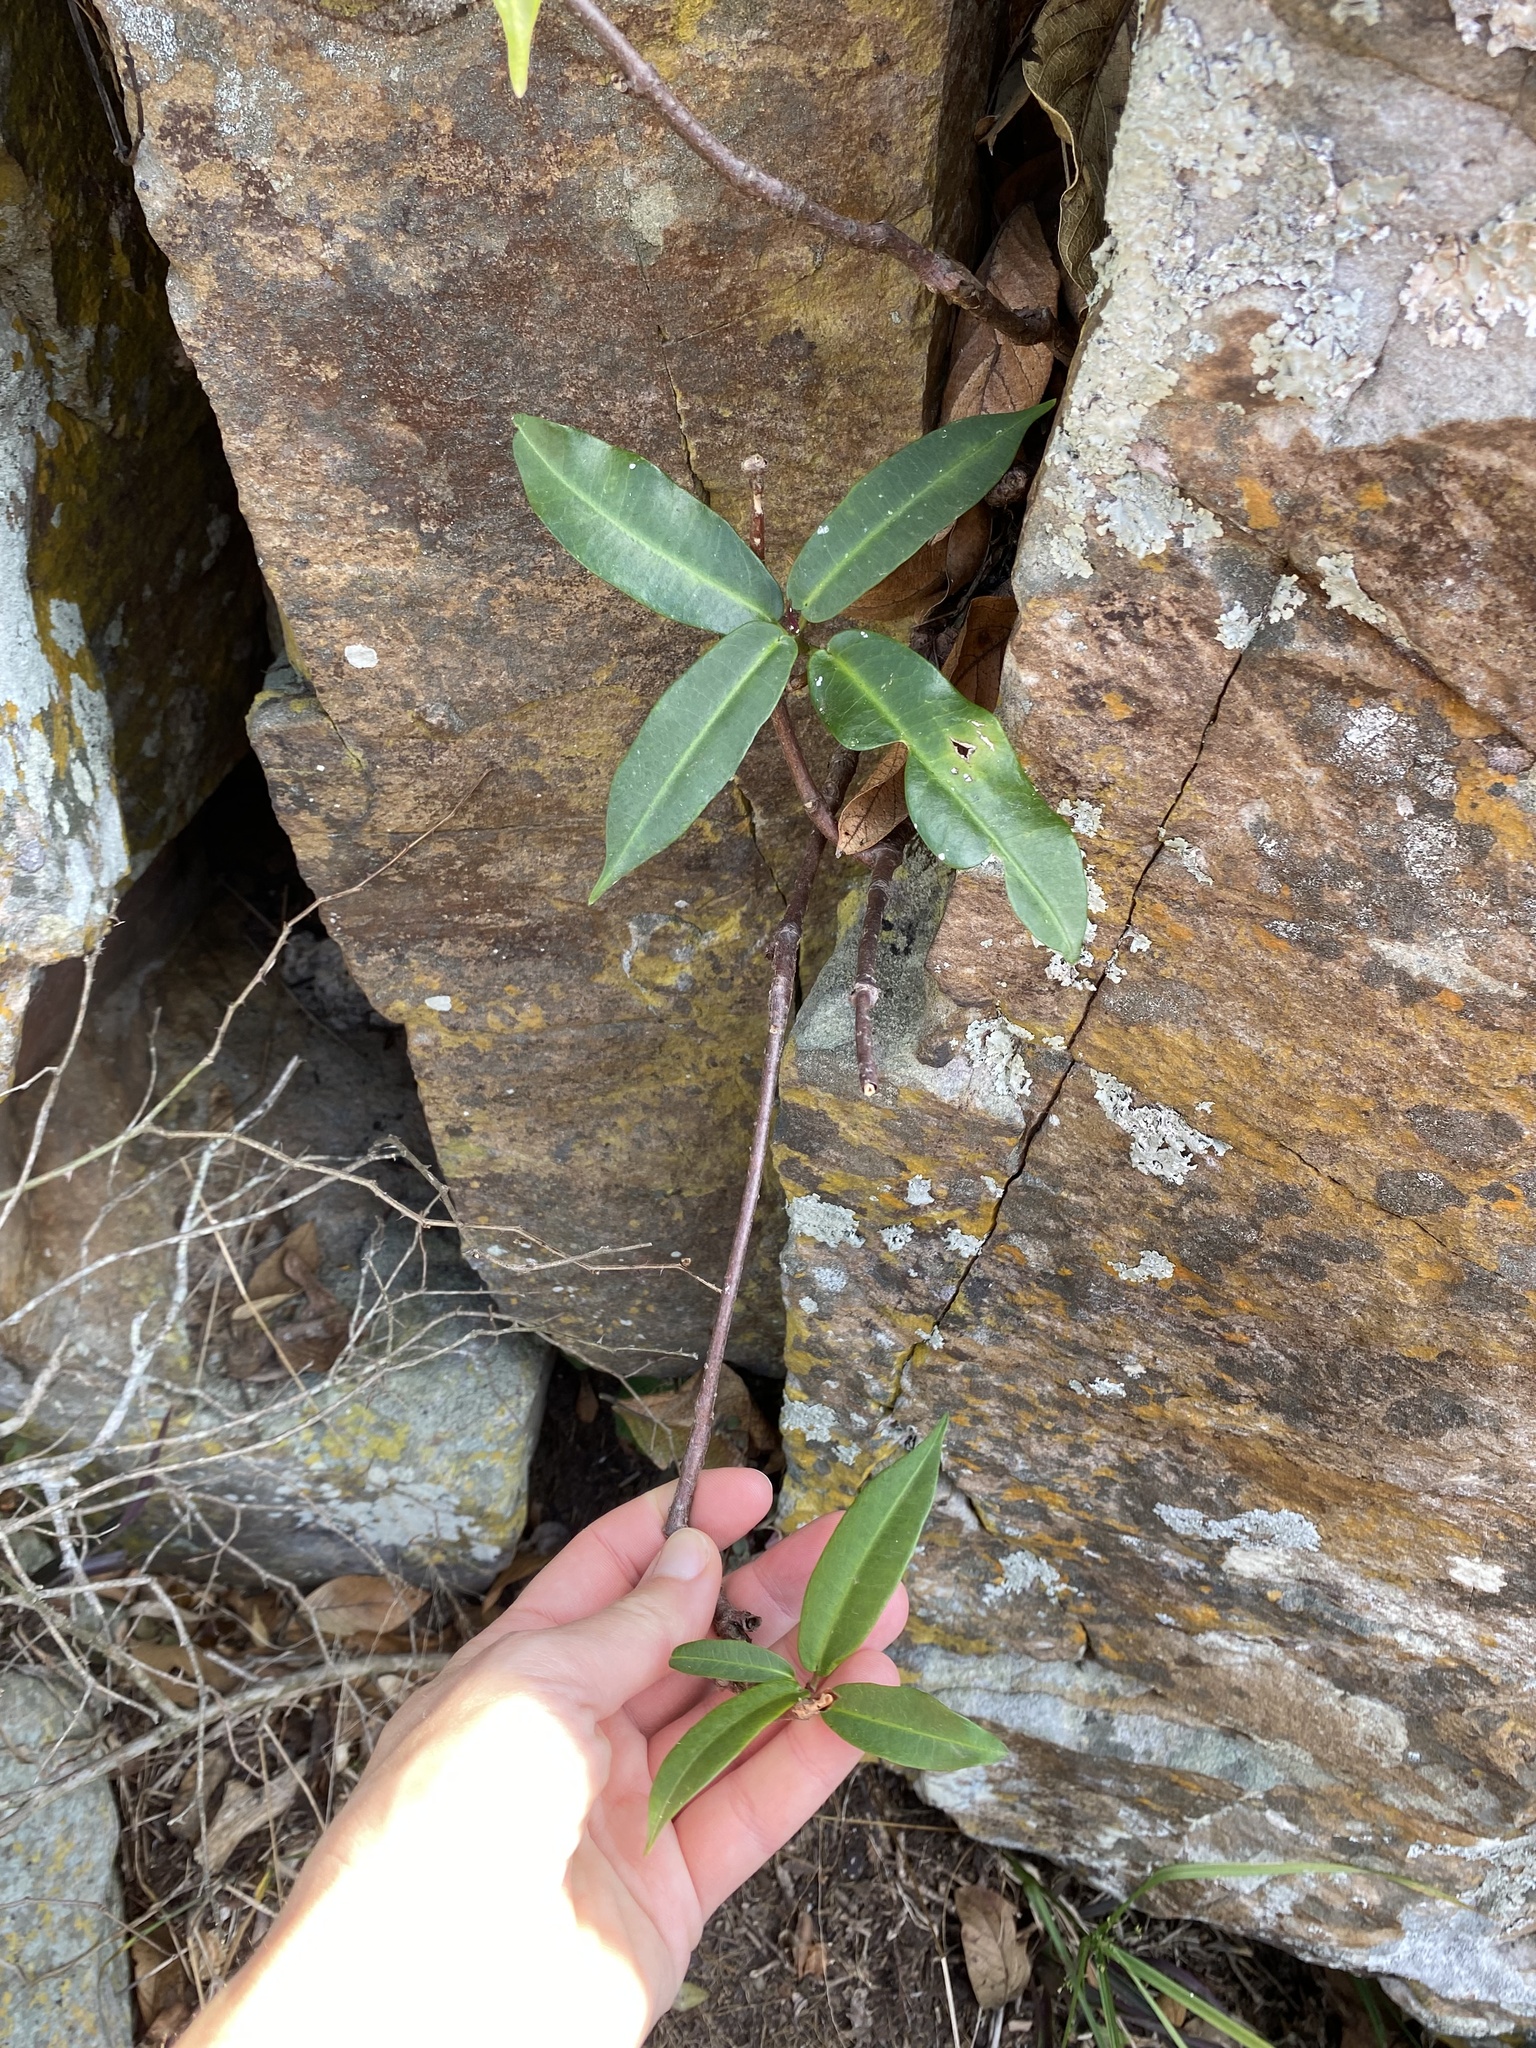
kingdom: Plantae
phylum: Tracheophyta
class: Magnoliopsida
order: Gentianales
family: Apocynaceae
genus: Petopentia
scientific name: Petopentia natalensis
